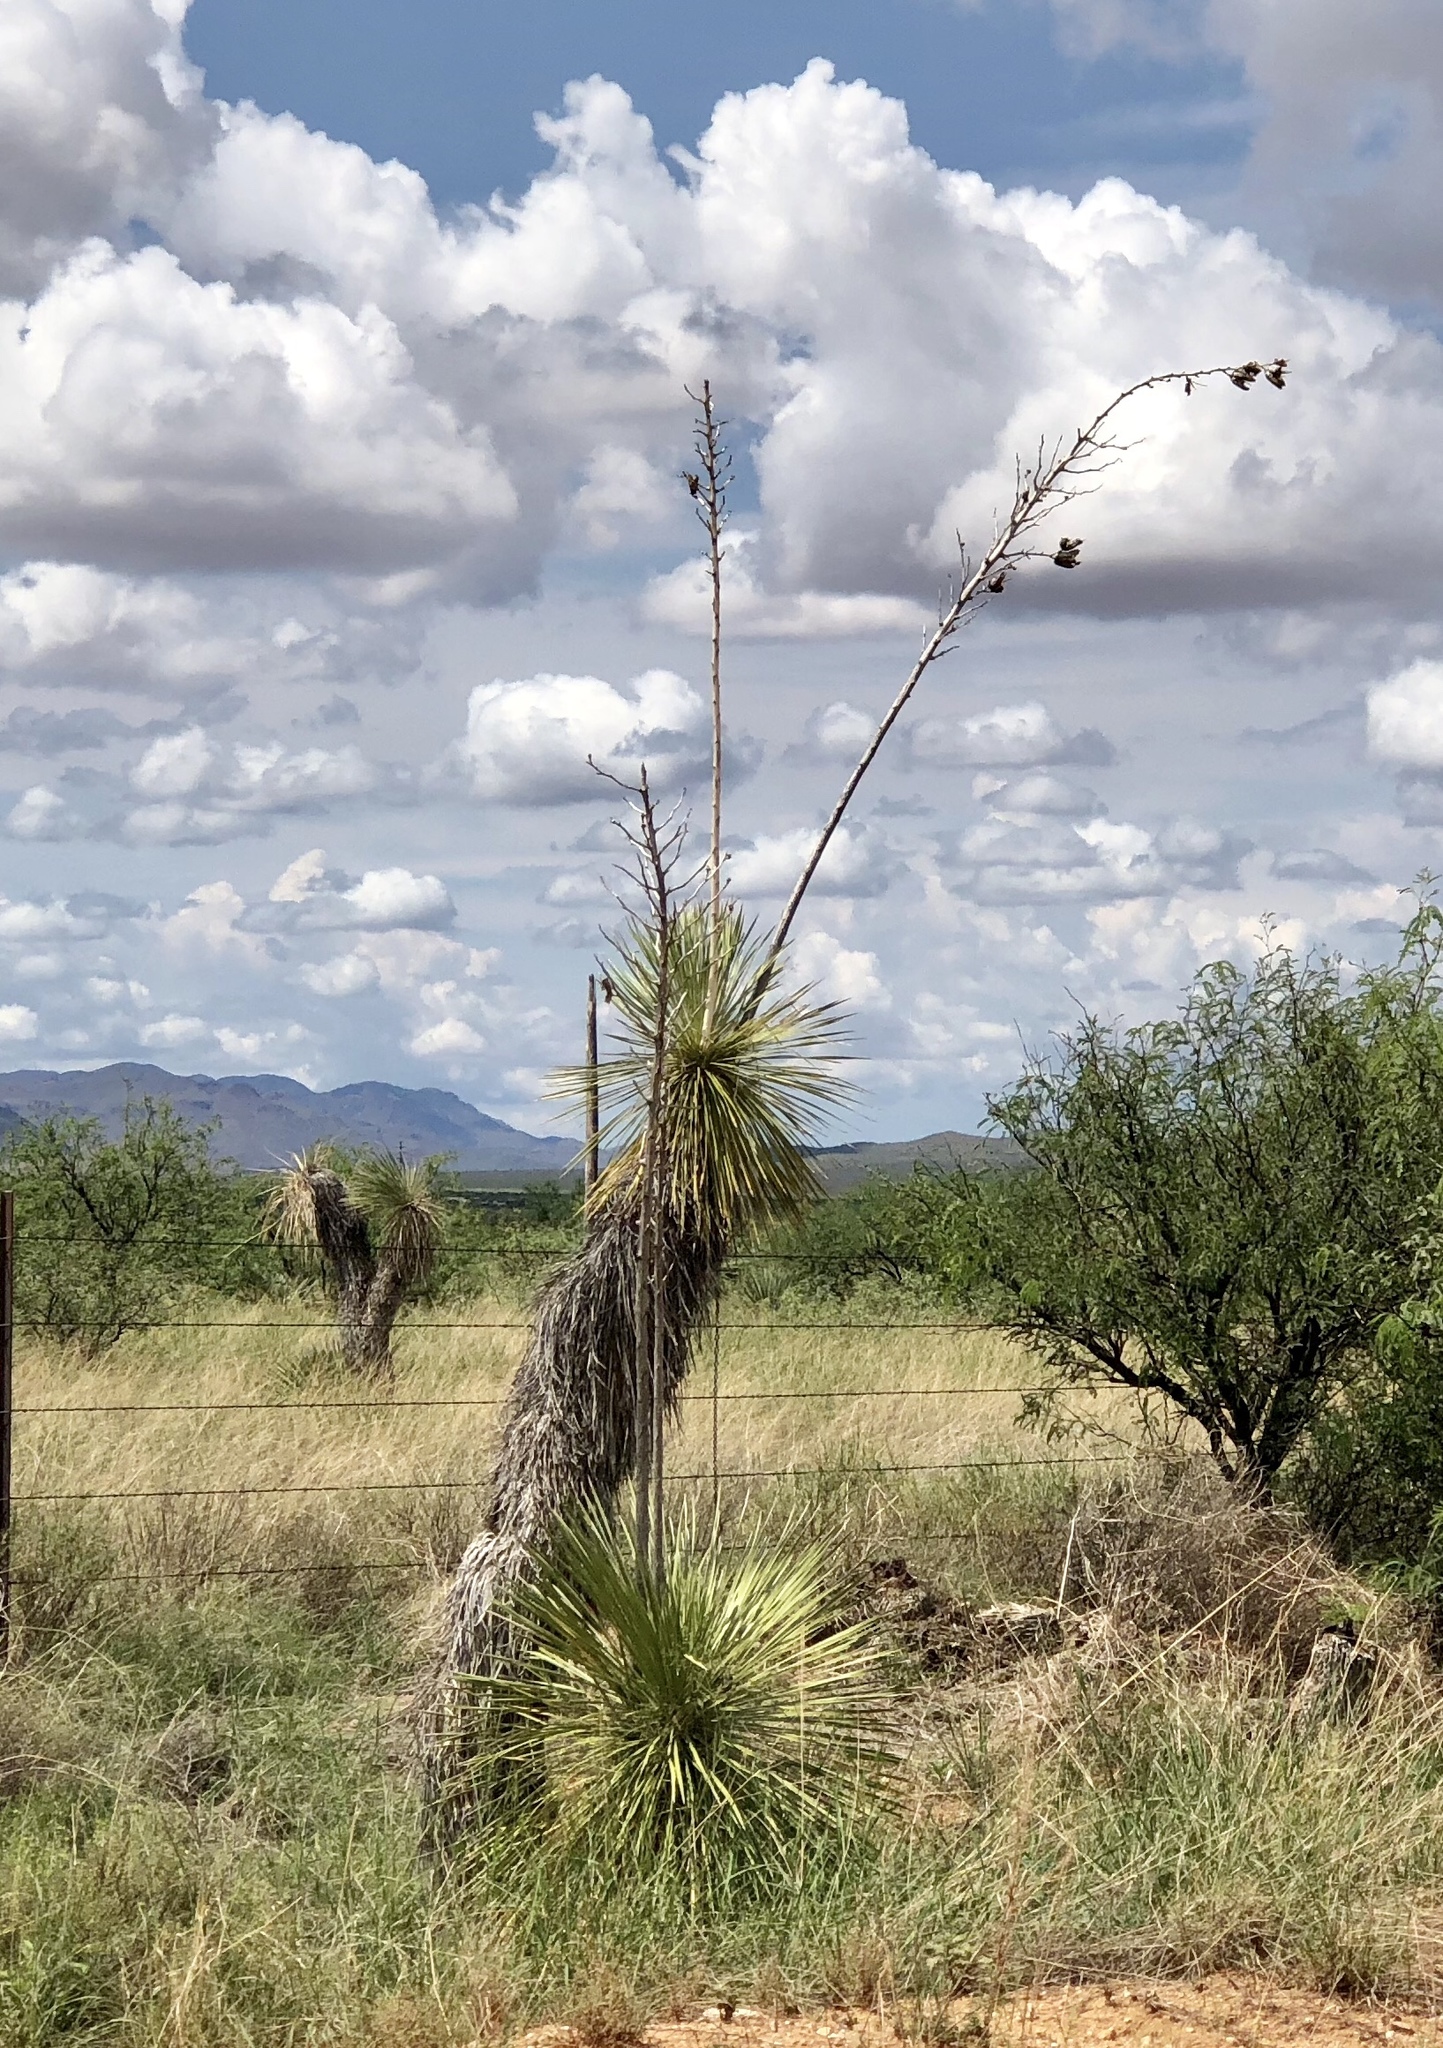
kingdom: Plantae
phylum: Tracheophyta
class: Liliopsida
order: Asparagales
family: Asparagaceae
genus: Yucca
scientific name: Yucca elata
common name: Palmella
